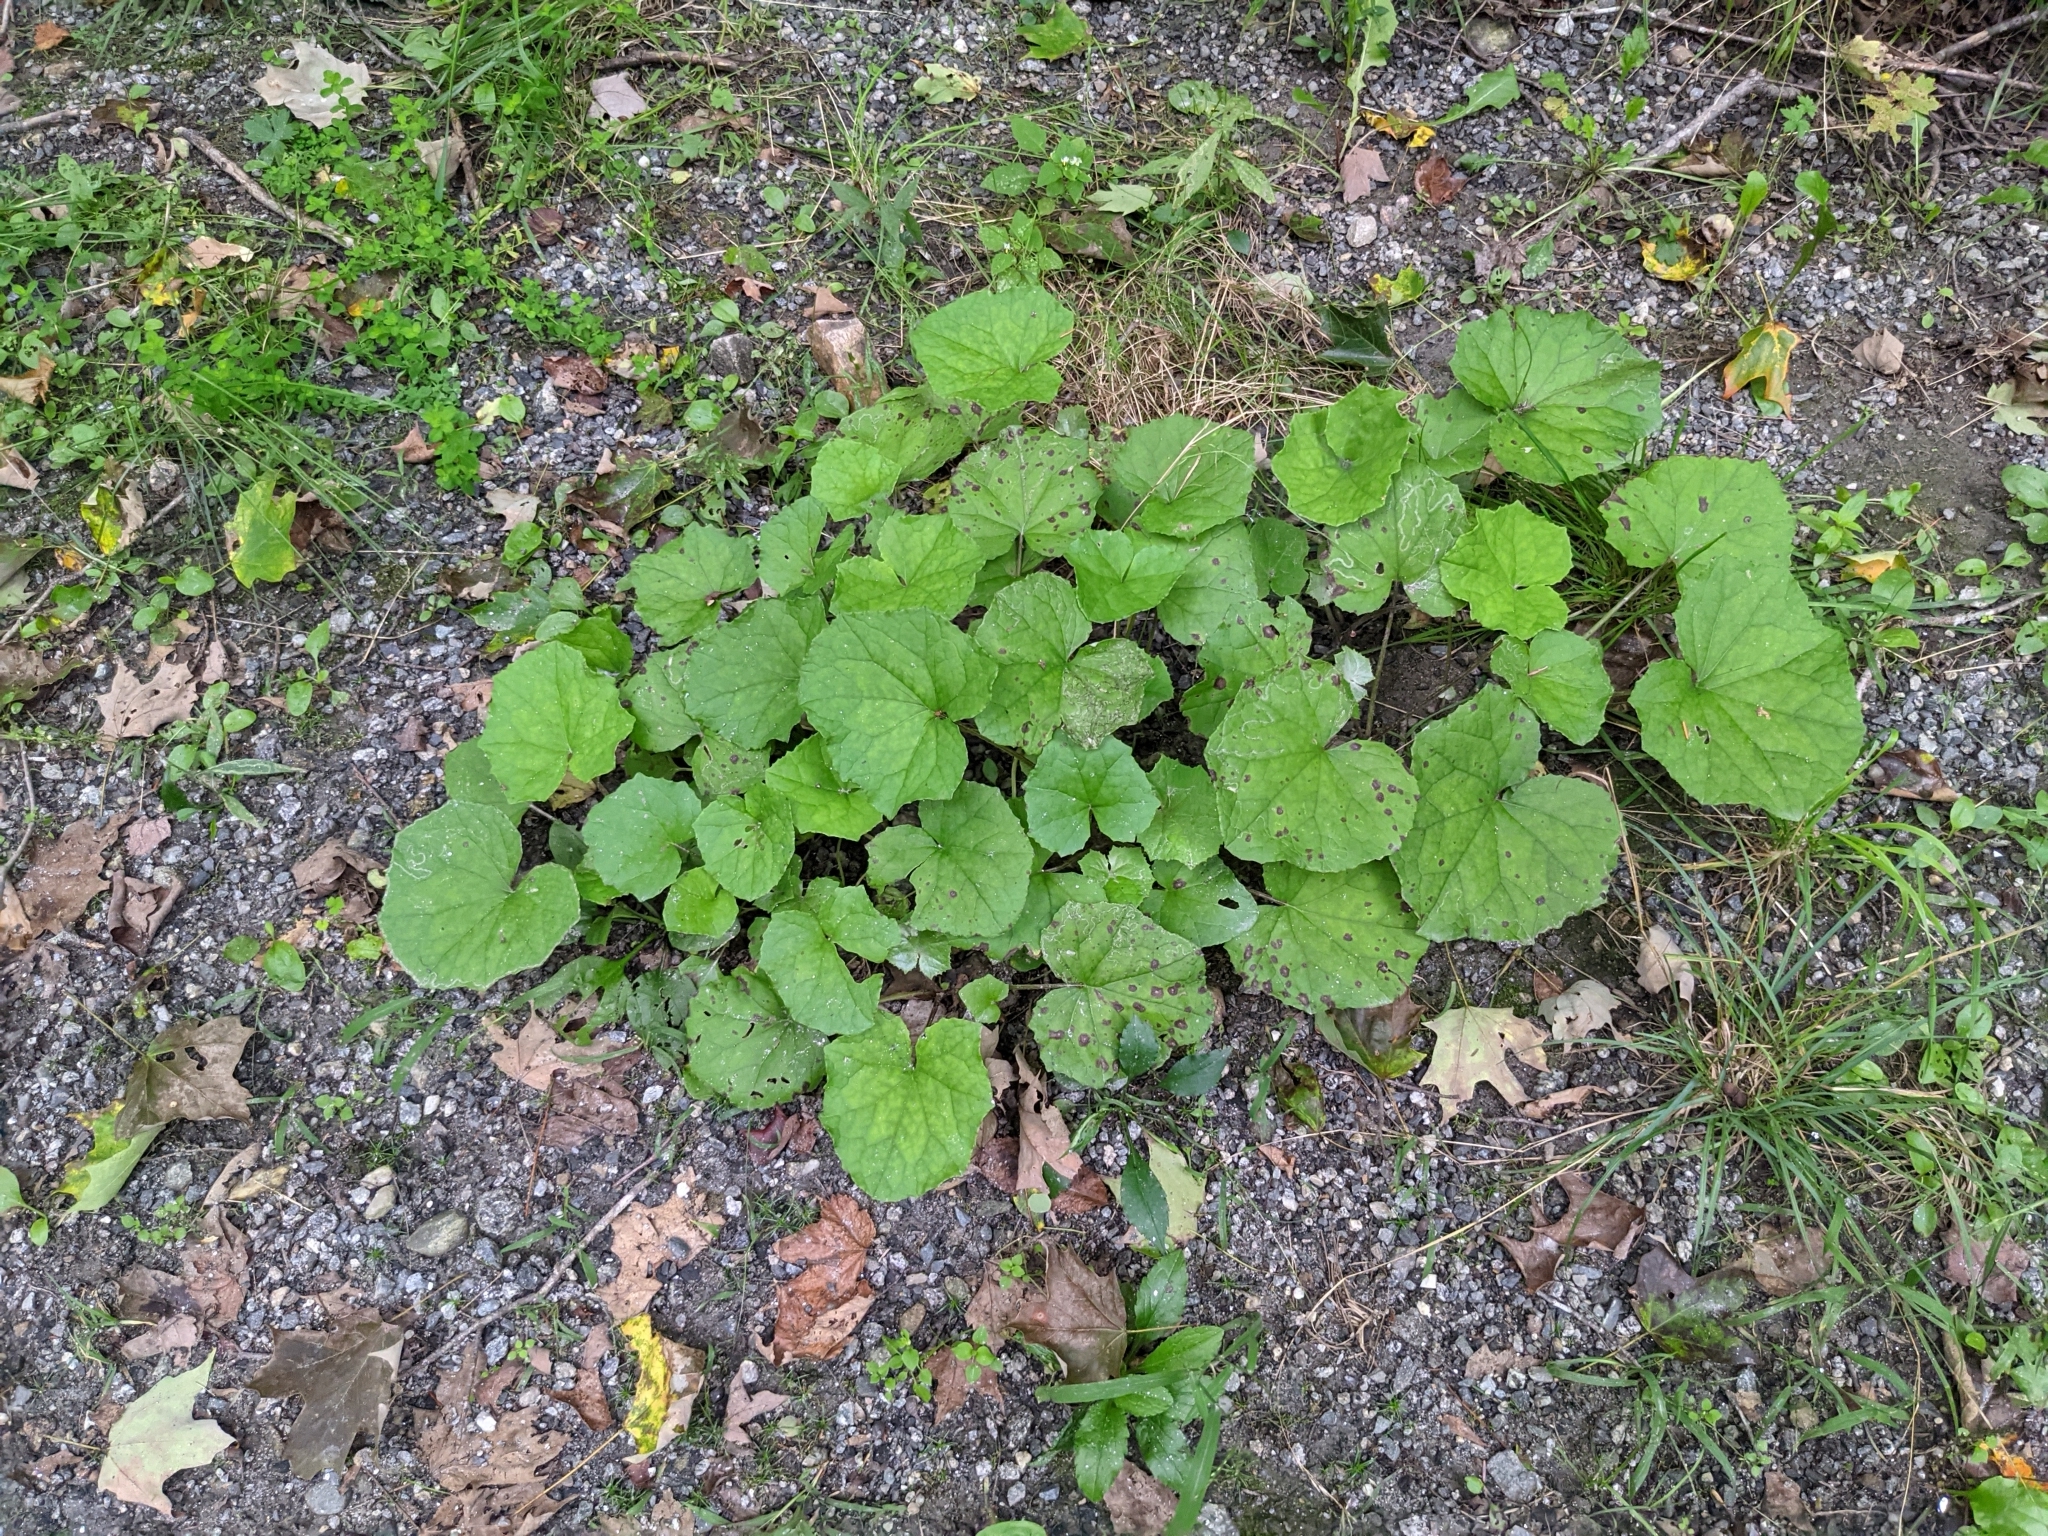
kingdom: Plantae
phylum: Tracheophyta
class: Magnoliopsida
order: Asterales
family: Asteraceae
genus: Tussilago
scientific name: Tussilago farfara
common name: Coltsfoot
